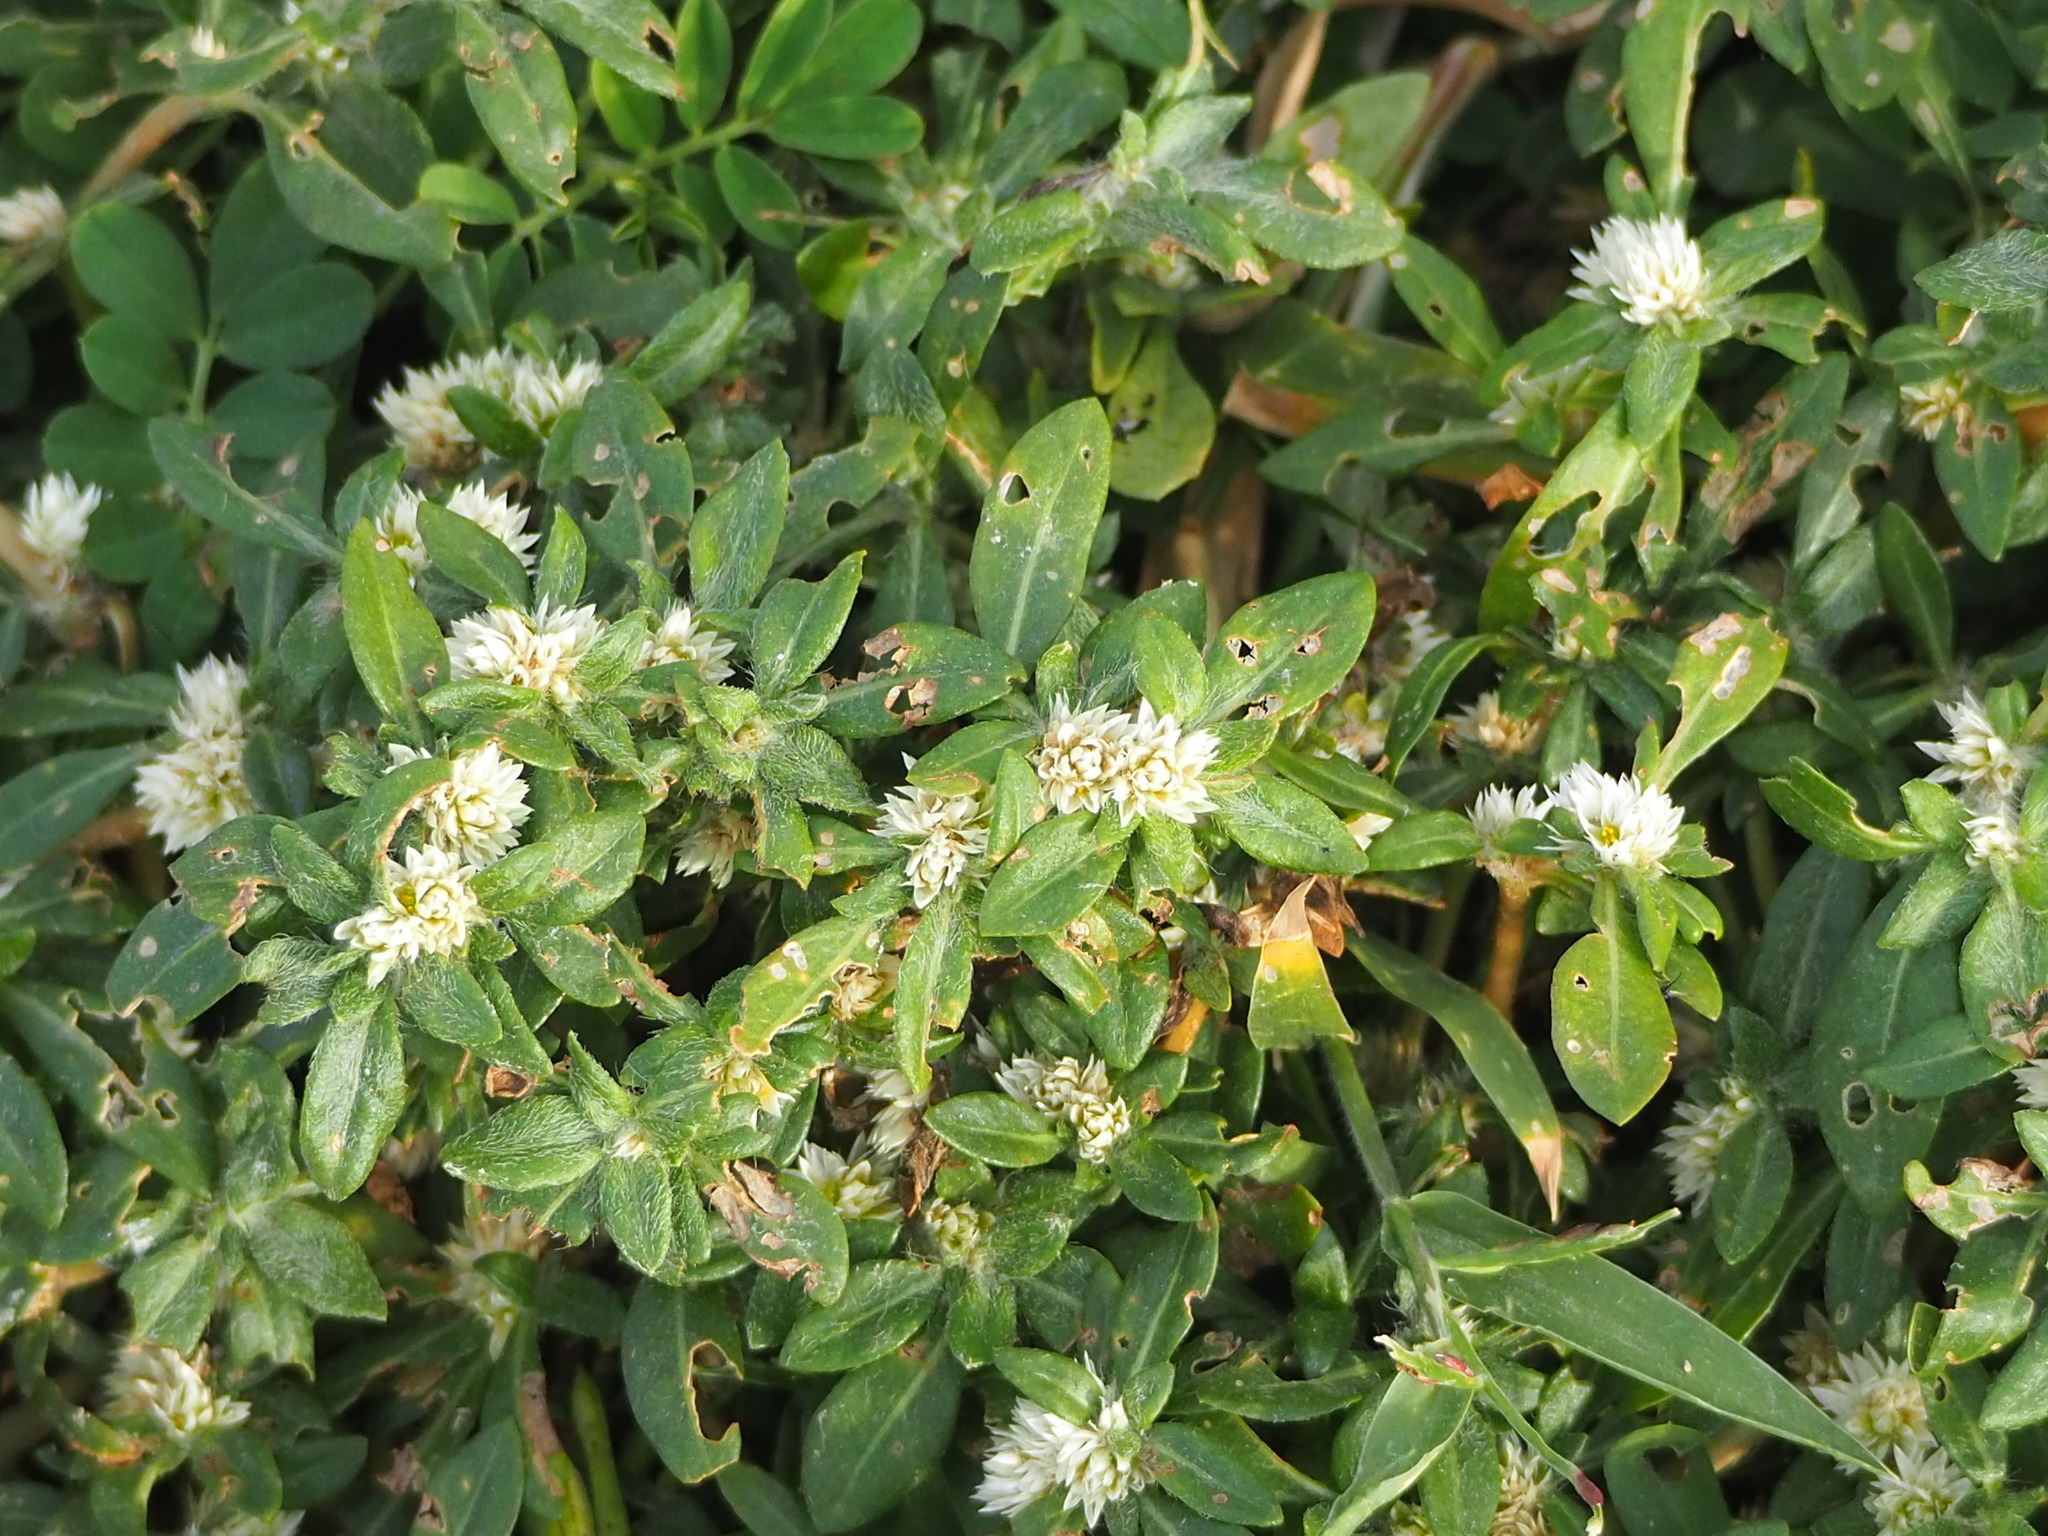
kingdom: Plantae
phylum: Tracheophyta
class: Magnoliopsida
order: Caryophyllales
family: Amaranthaceae
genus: Alternanthera
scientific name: Alternanthera paronychioides
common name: Smooth joyweed
